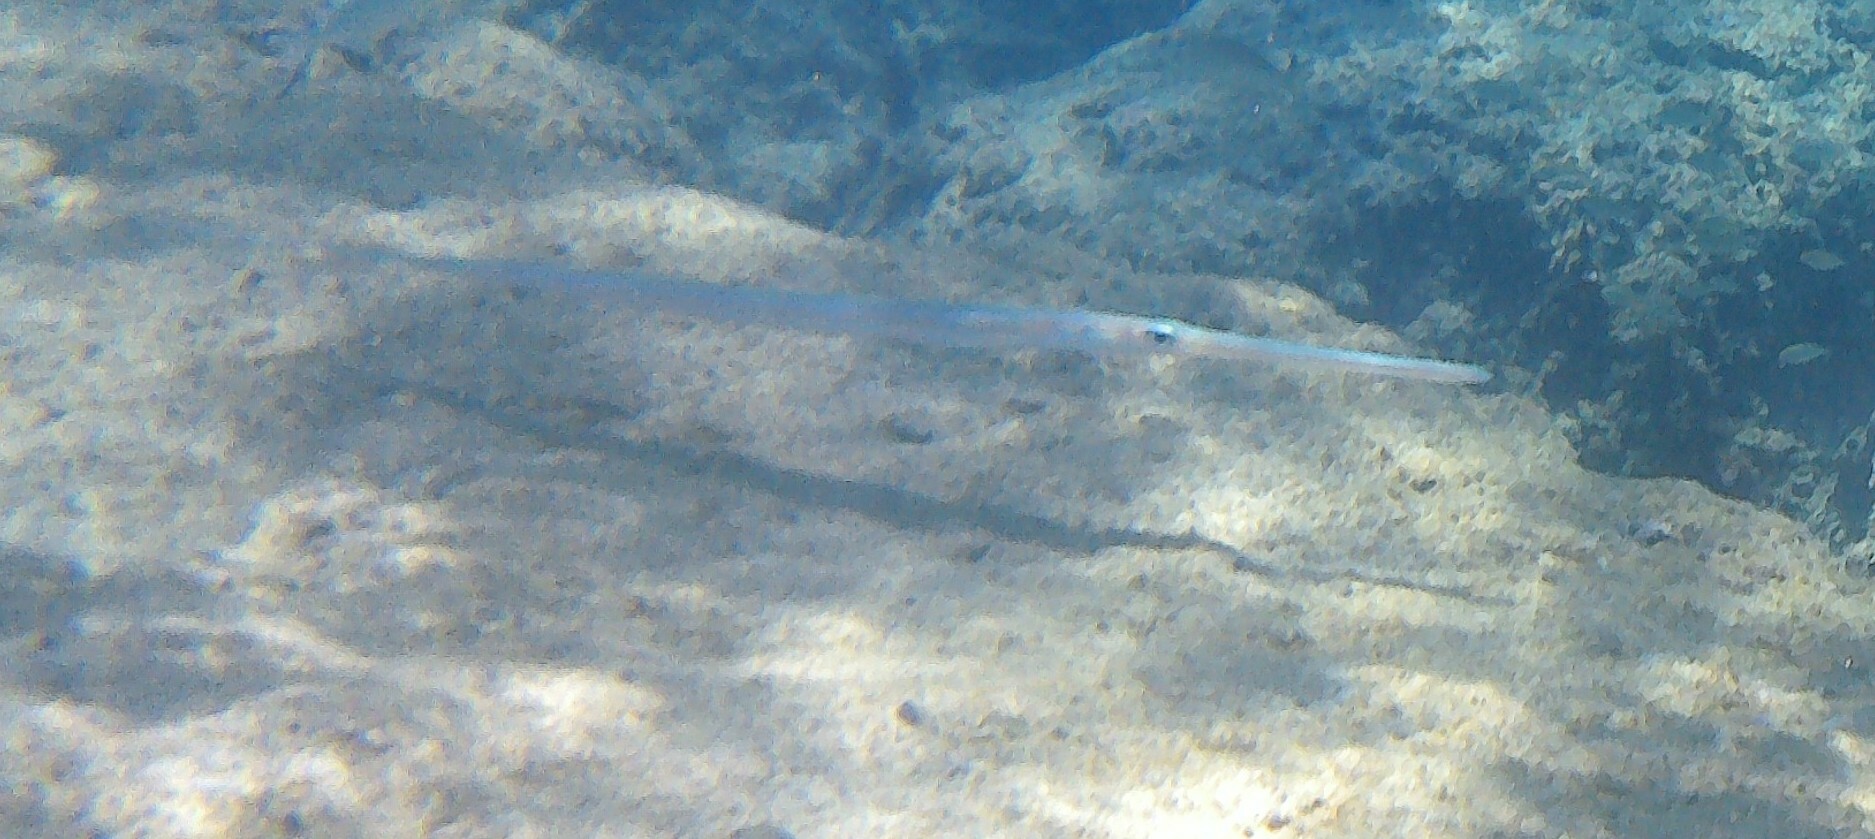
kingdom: Animalia
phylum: Chordata
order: Syngnathiformes
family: Fistulariidae
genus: Fistularia
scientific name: Fistularia commersonii
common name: Bluespotted cornetfish
